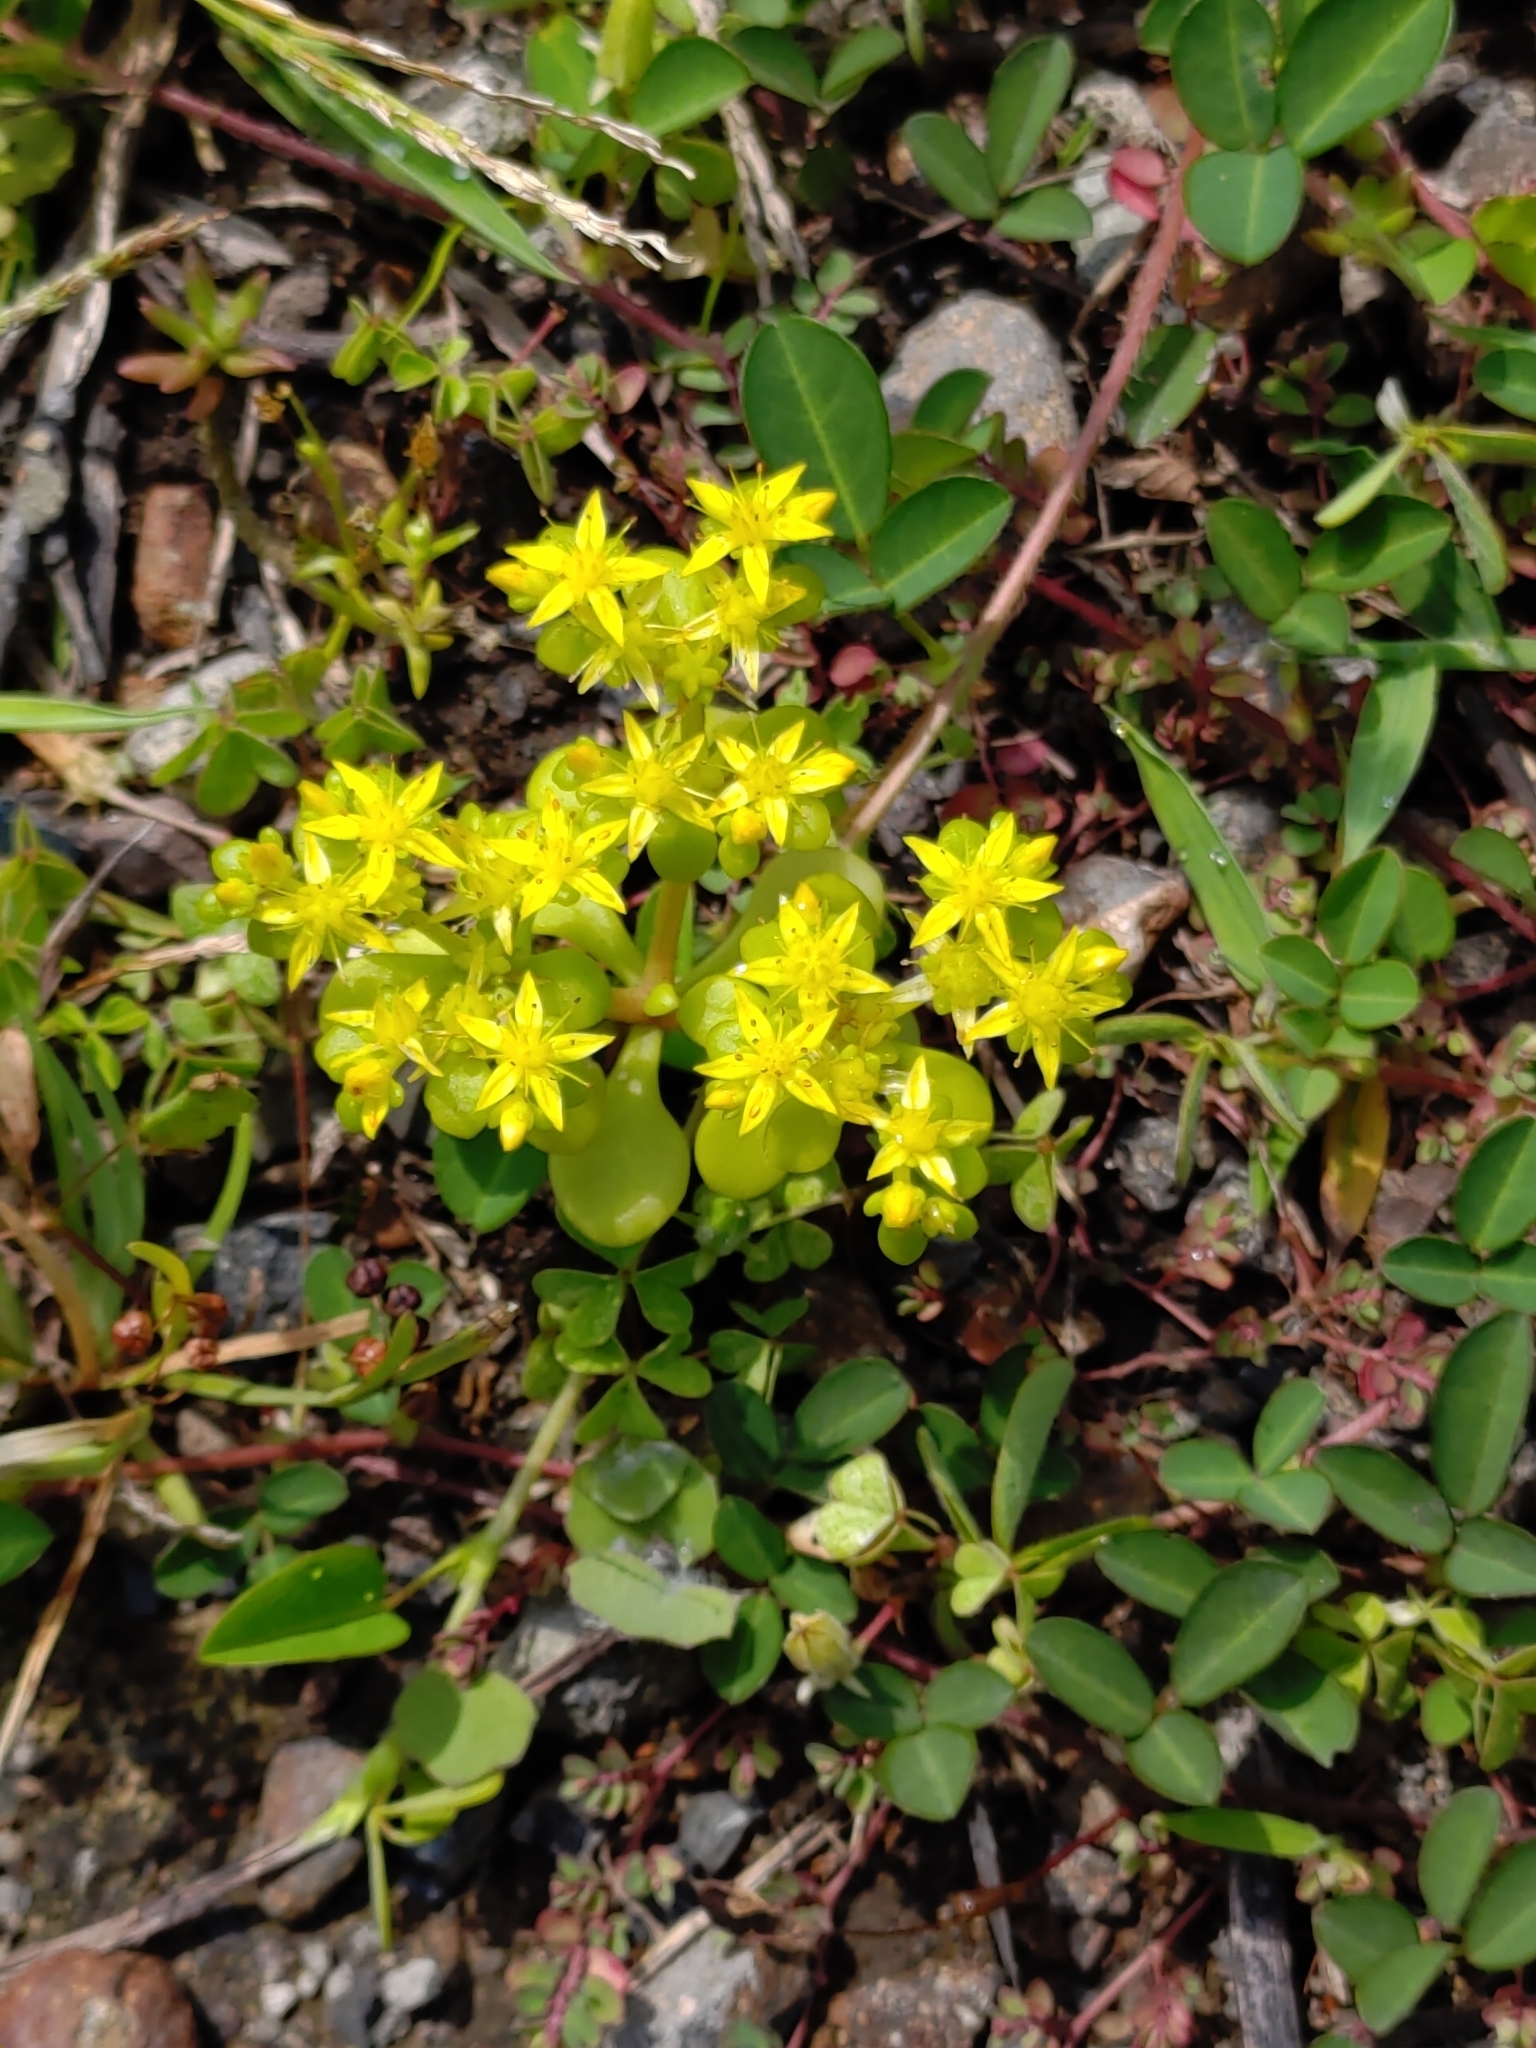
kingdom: Plantae
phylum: Tracheophyta
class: Magnoliopsida
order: Saxifragales
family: Crassulaceae
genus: Sedum
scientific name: Sedum formosanum
